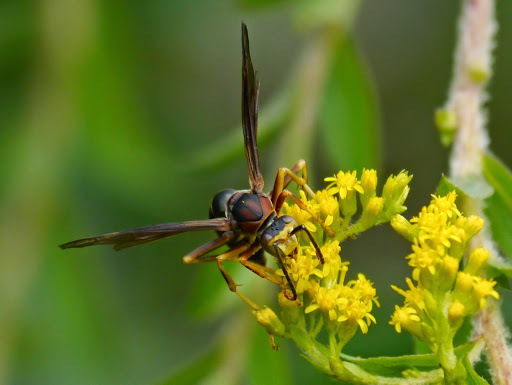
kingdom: Animalia
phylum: Arthropoda
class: Insecta
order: Hymenoptera
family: Eumenidae
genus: Polistes
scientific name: Polistes metricus
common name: Metric paper wasp
